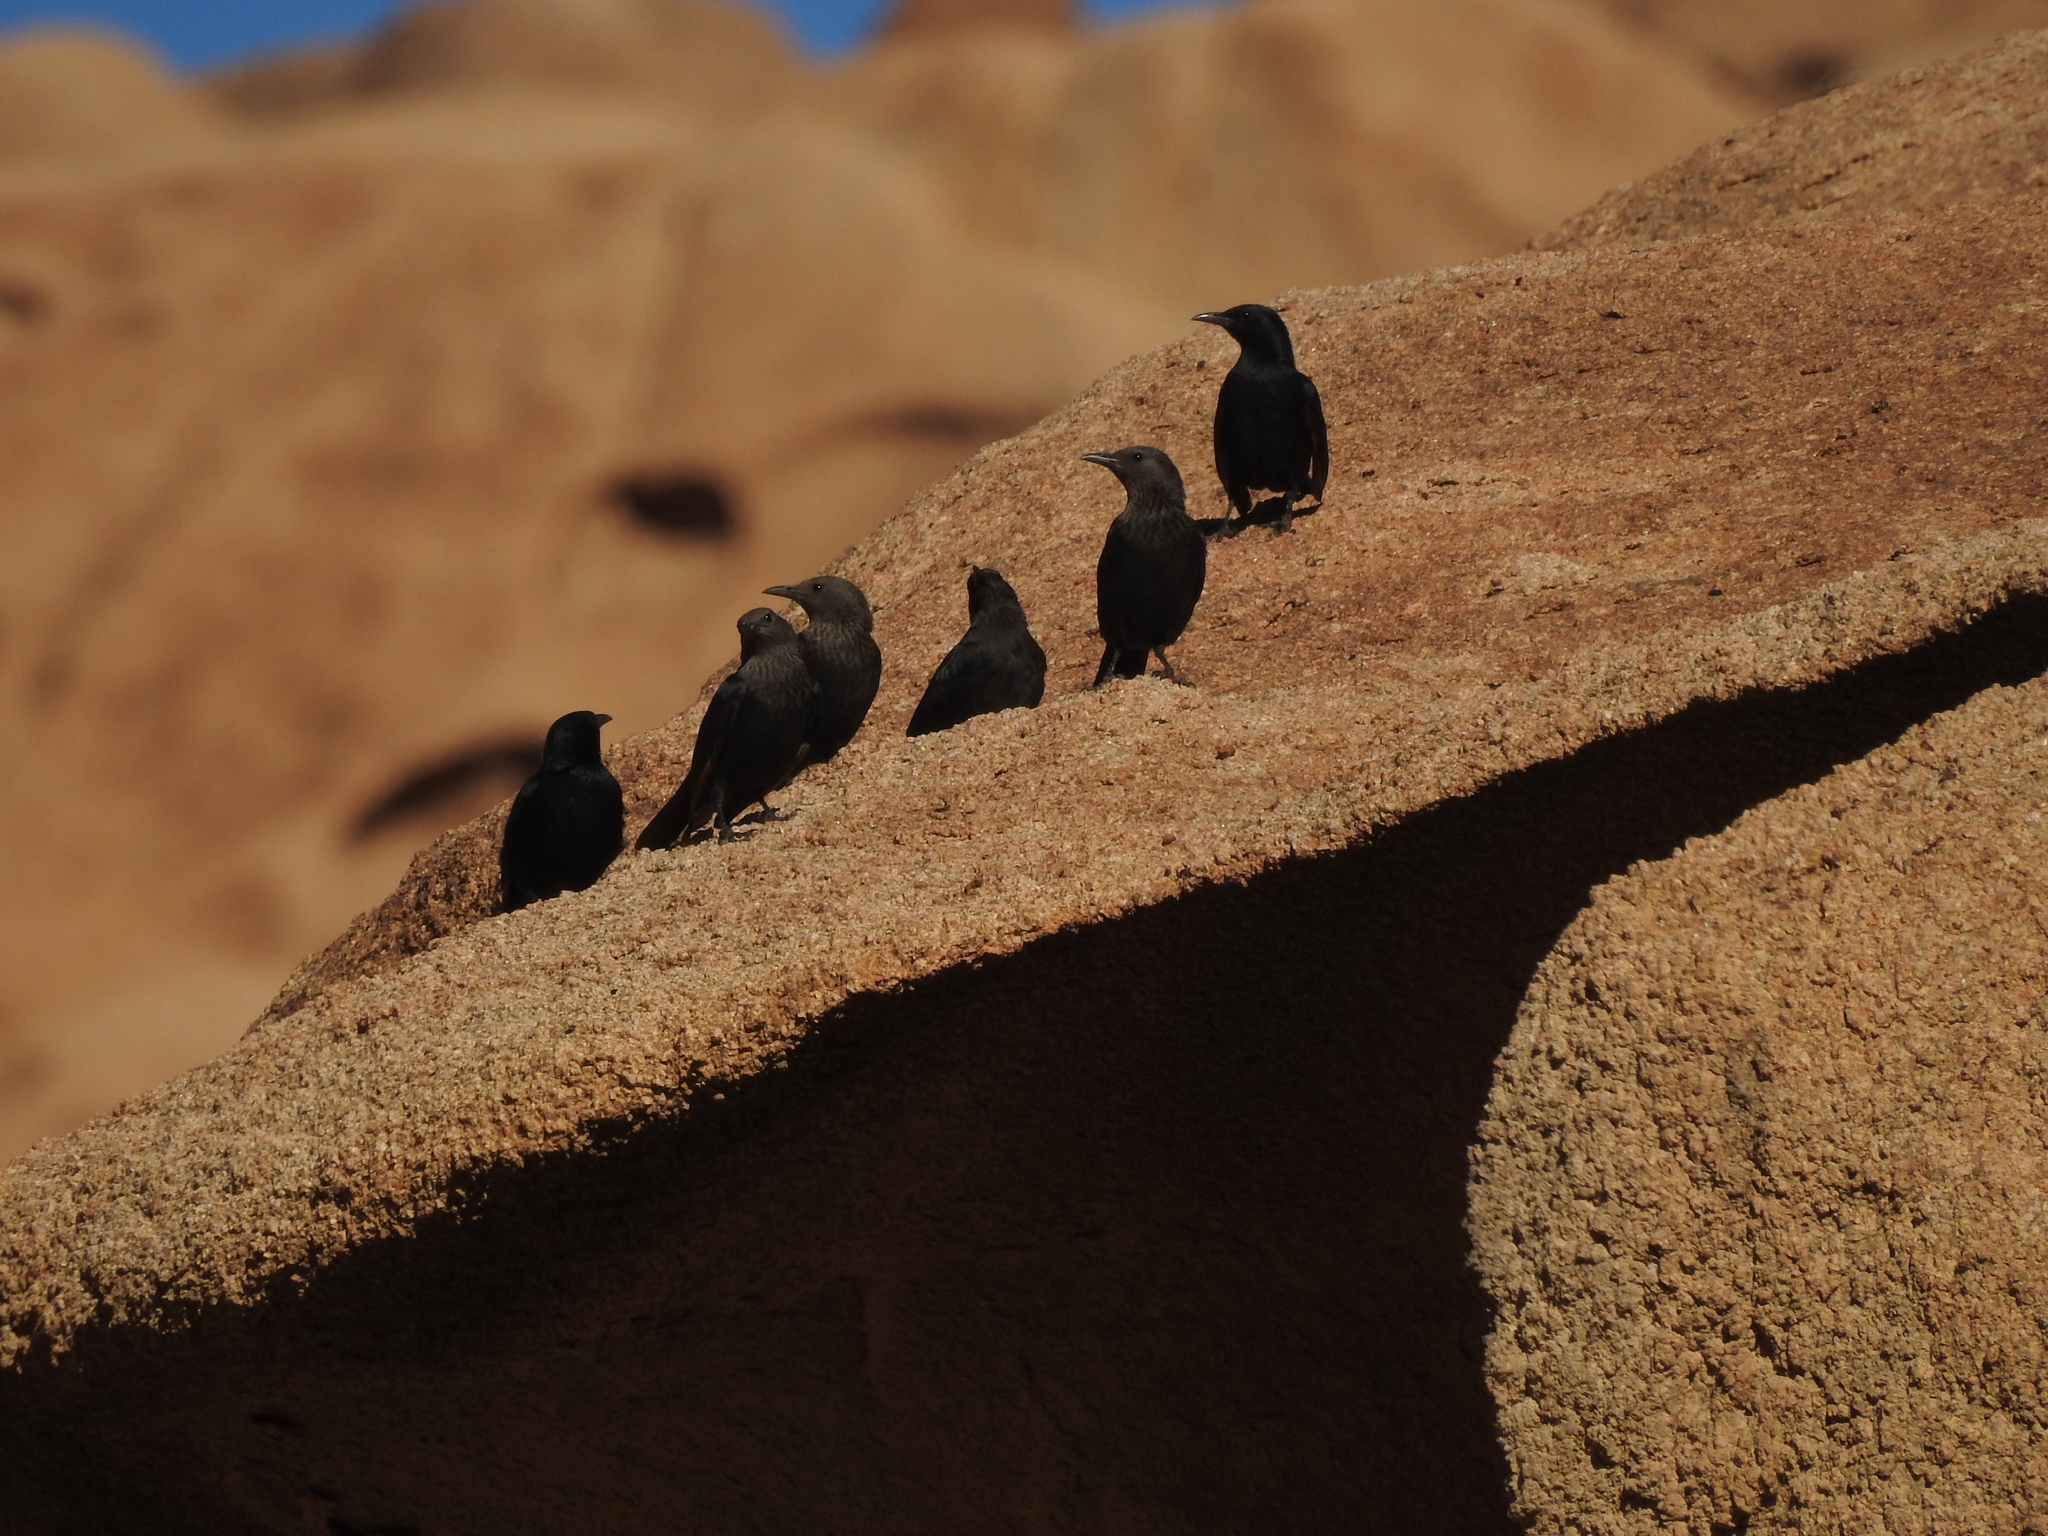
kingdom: Animalia
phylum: Chordata
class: Aves
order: Passeriformes
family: Sturnidae
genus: Onychognathus
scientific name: Onychognathus tristramii
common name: Tristram's starling
